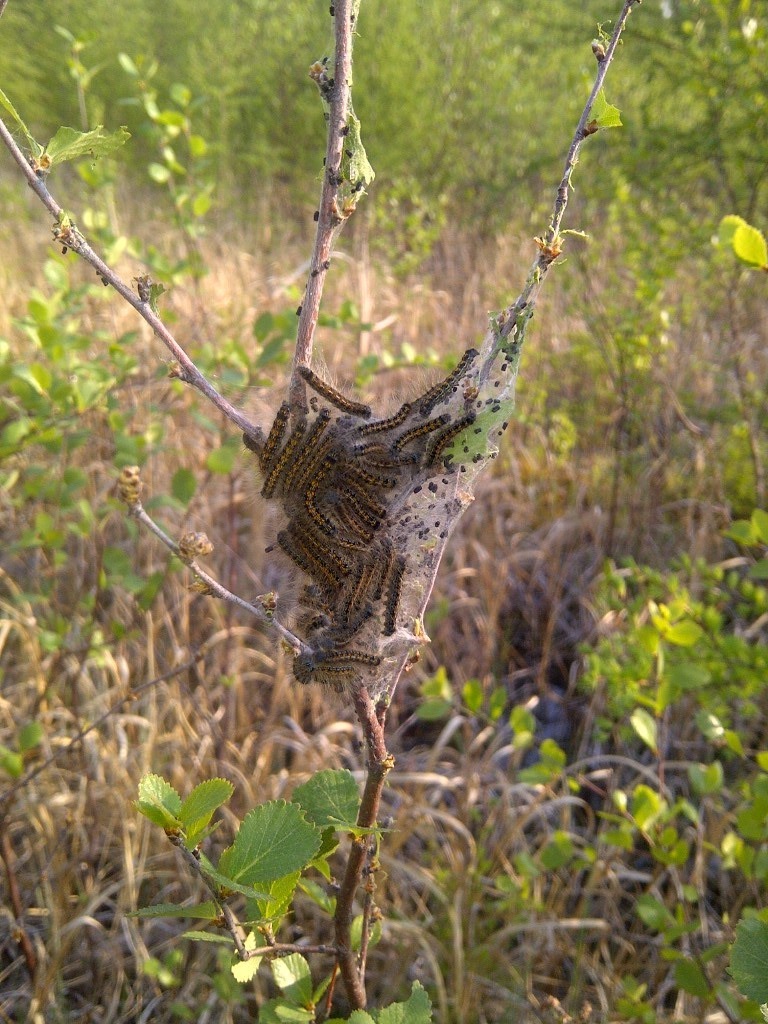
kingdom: Animalia
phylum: Arthropoda
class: Insecta
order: Lepidoptera
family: Lasiocampidae
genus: Malacosoma
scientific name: Malacosoma californica
